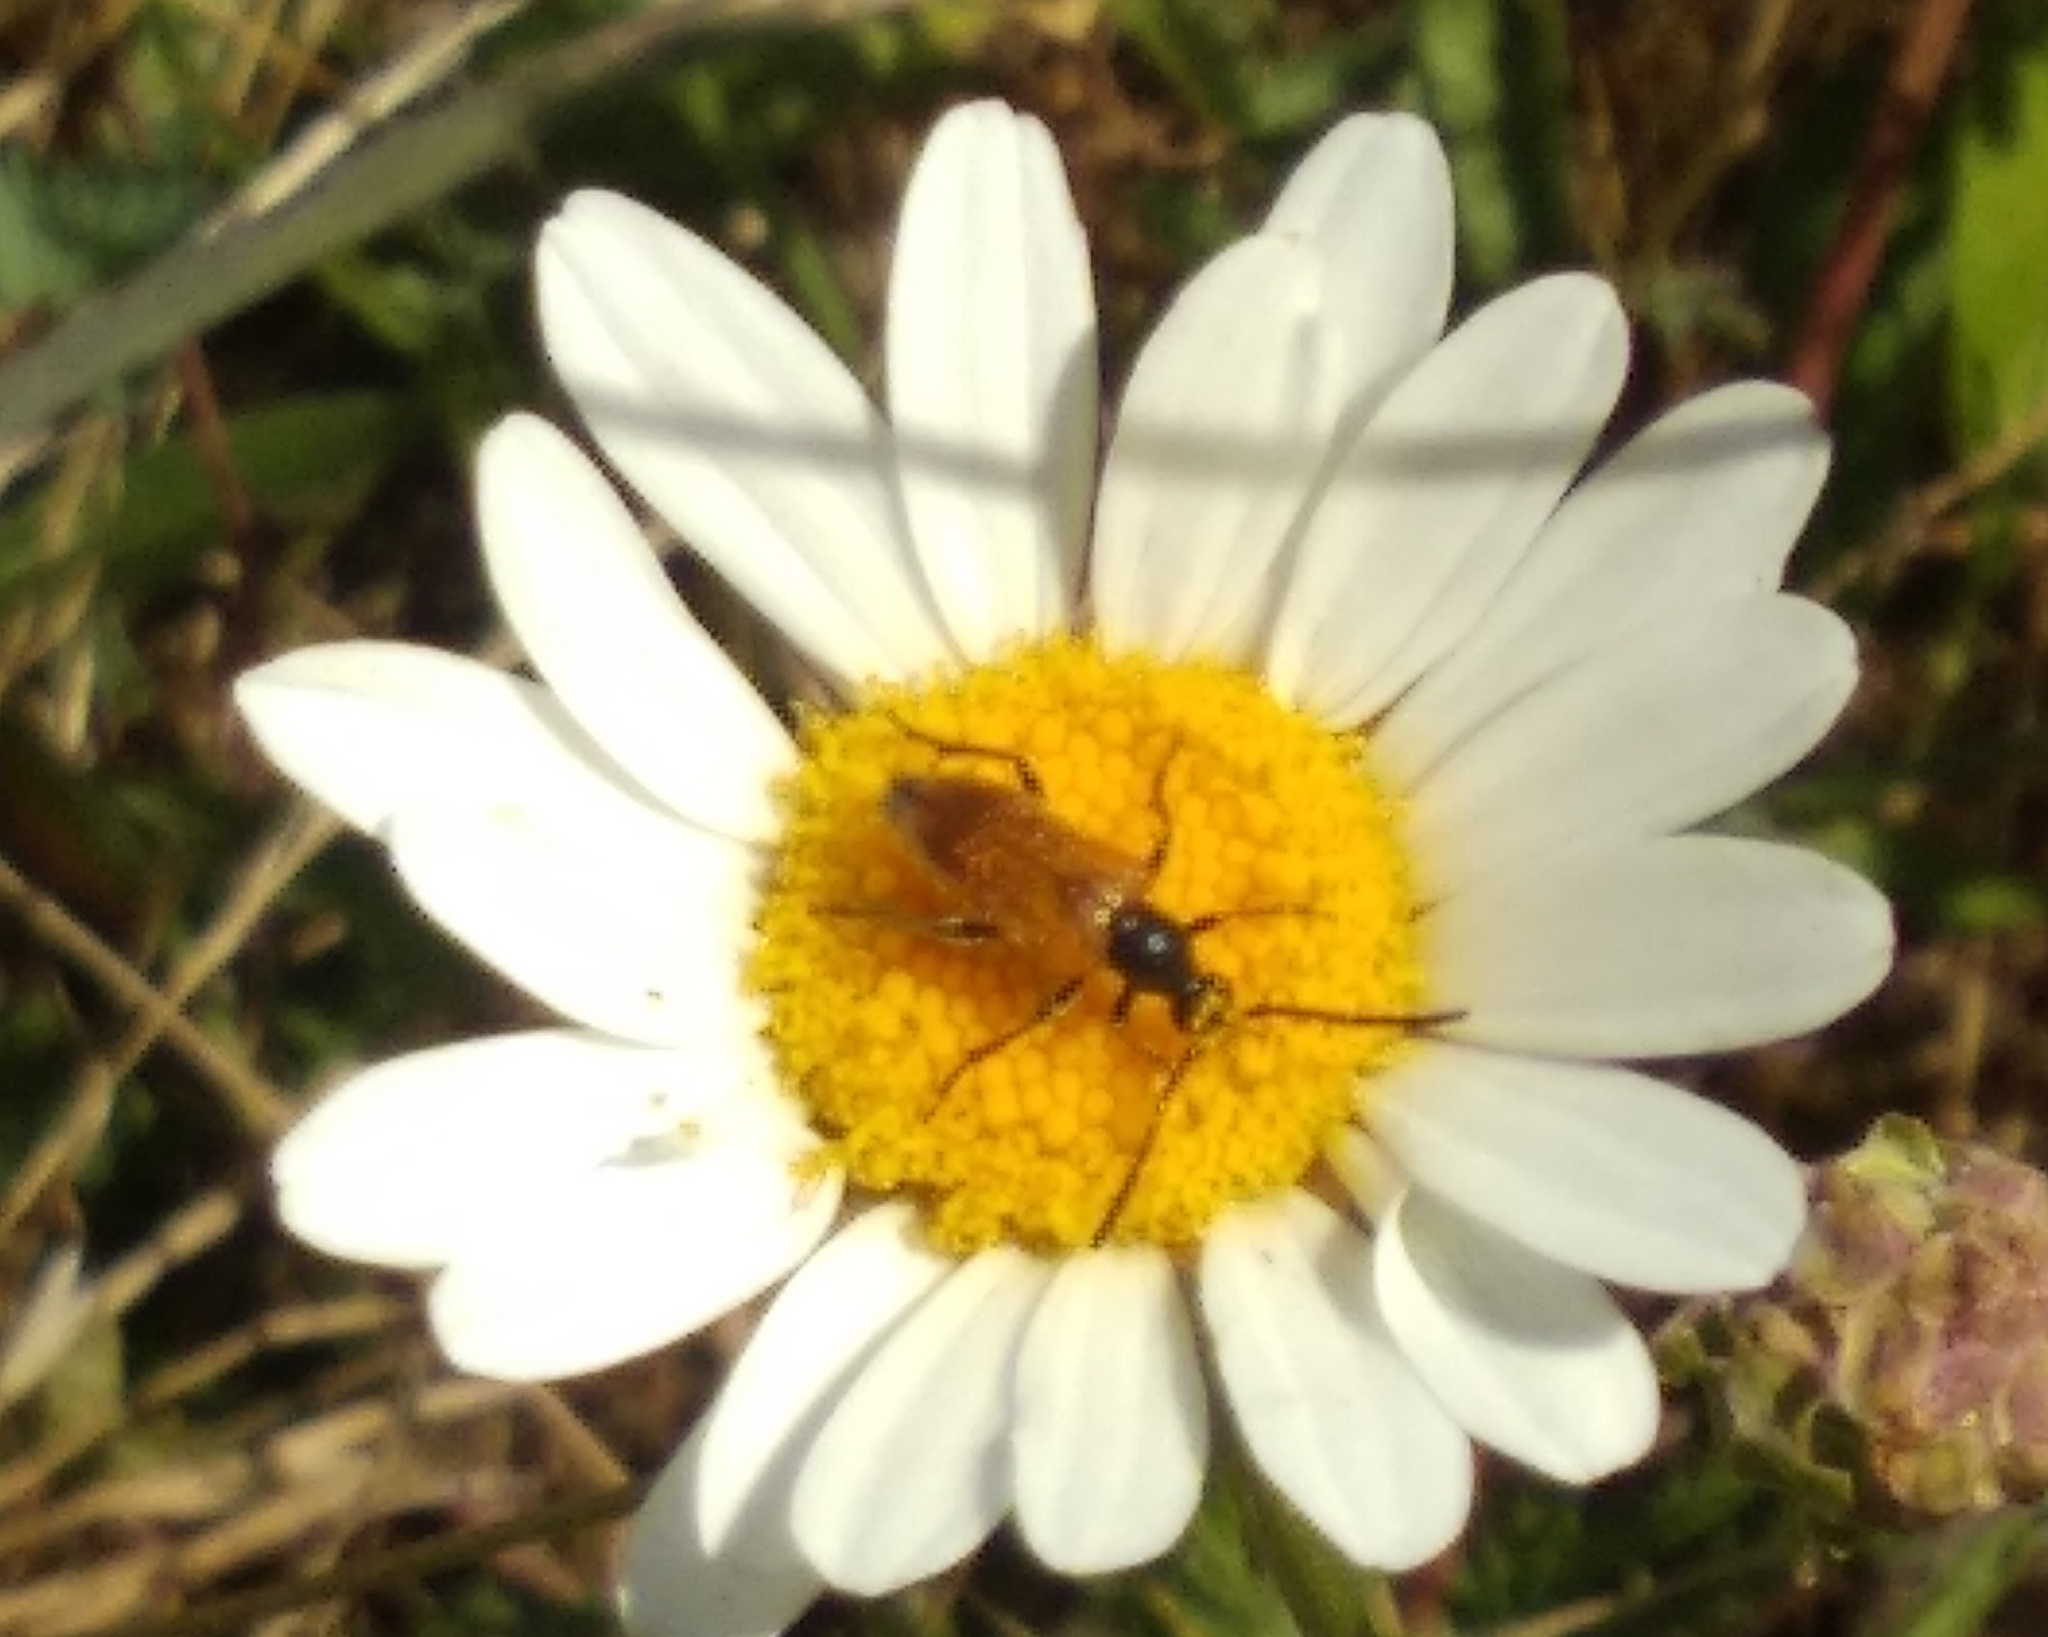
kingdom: Animalia
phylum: Arthropoda
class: Insecta
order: Coleoptera
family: Cerambycidae
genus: Pseudovadonia
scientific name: Pseudovadonia livida
